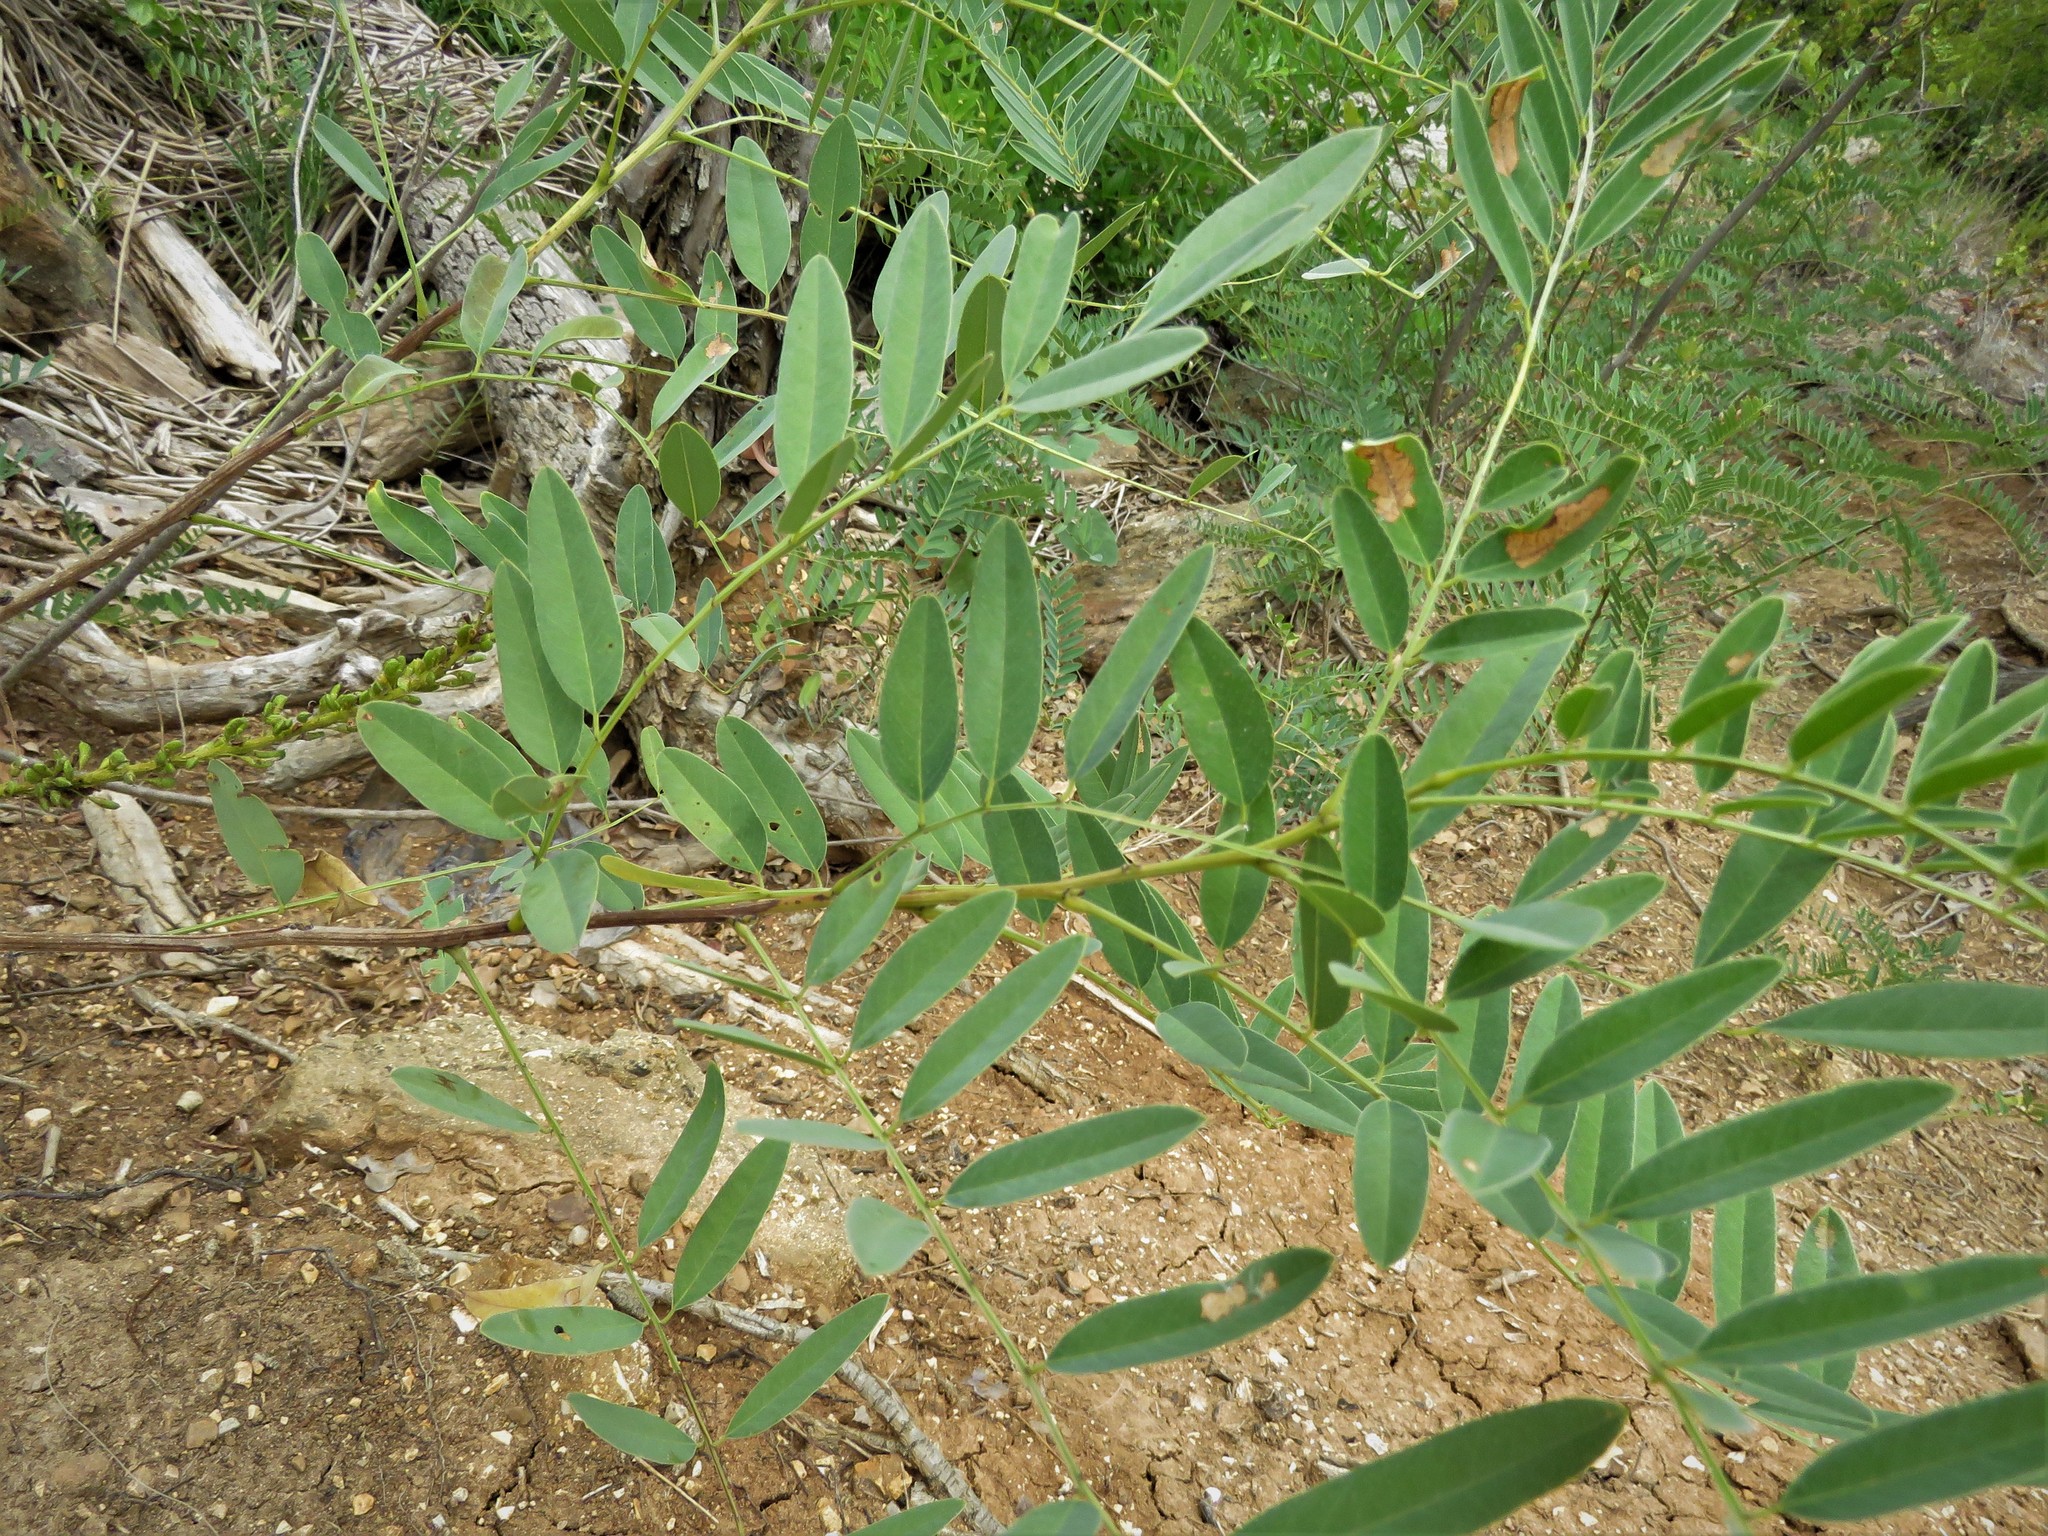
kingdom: Plantae
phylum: Tracheophyta
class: Magnoliopsida
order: Fabales
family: Fabaceae
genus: Amorpha
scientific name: Amorpha fruticosa
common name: False indigo
